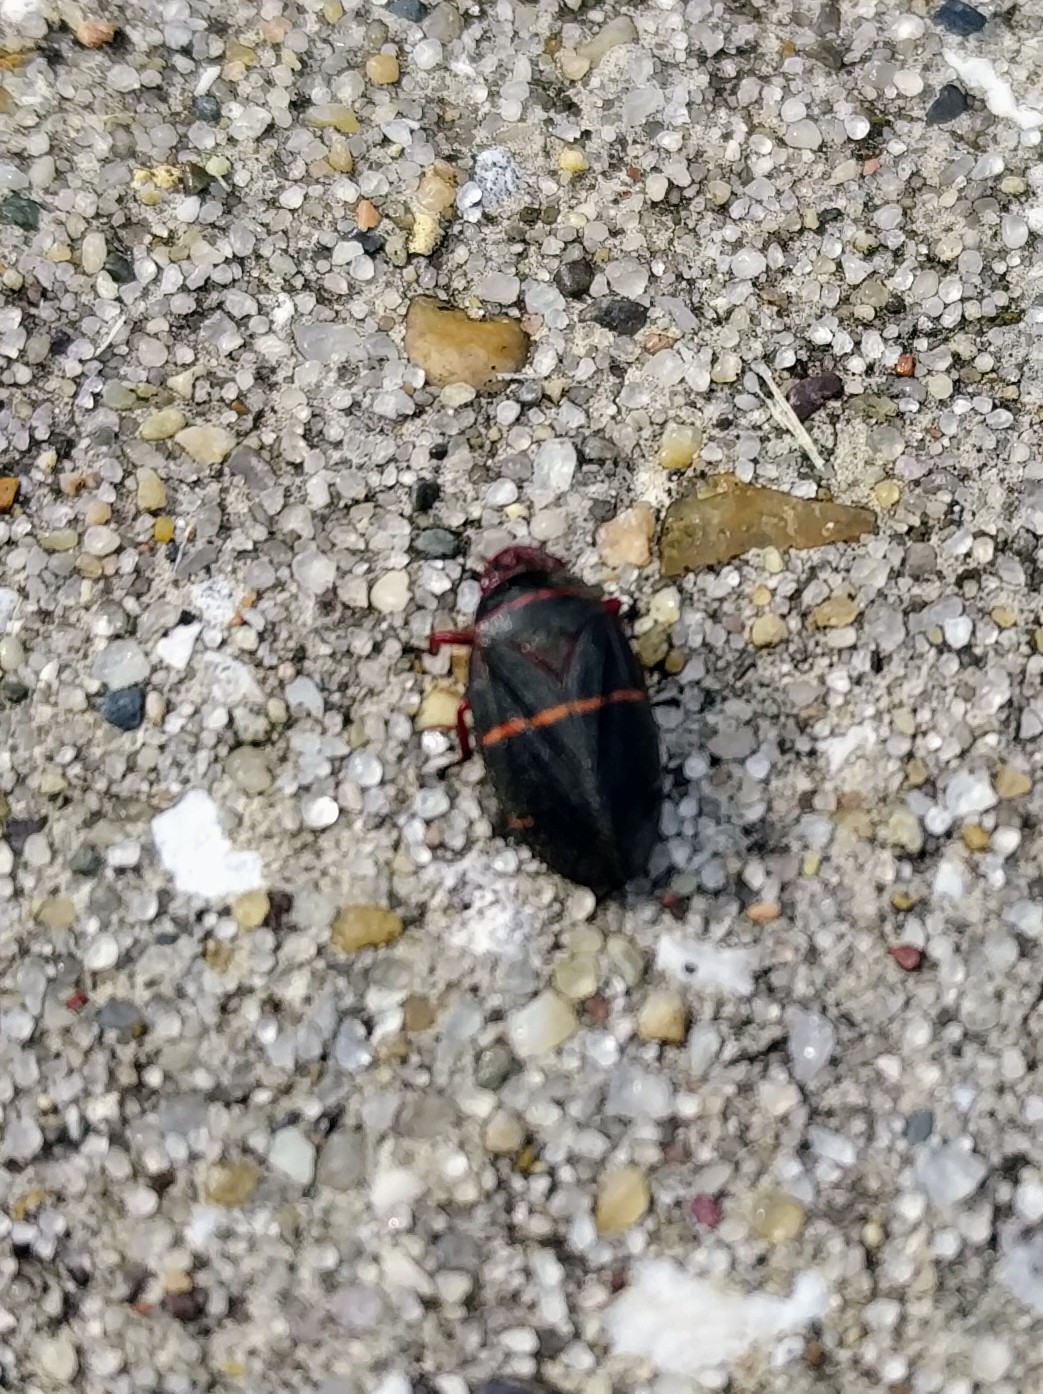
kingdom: Animalia
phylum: Arthropoda
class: Insecta
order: Hemiptera
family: Cercopidae
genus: Prosapia
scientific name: Prosapia bicincta
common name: Twolined spittlebug
